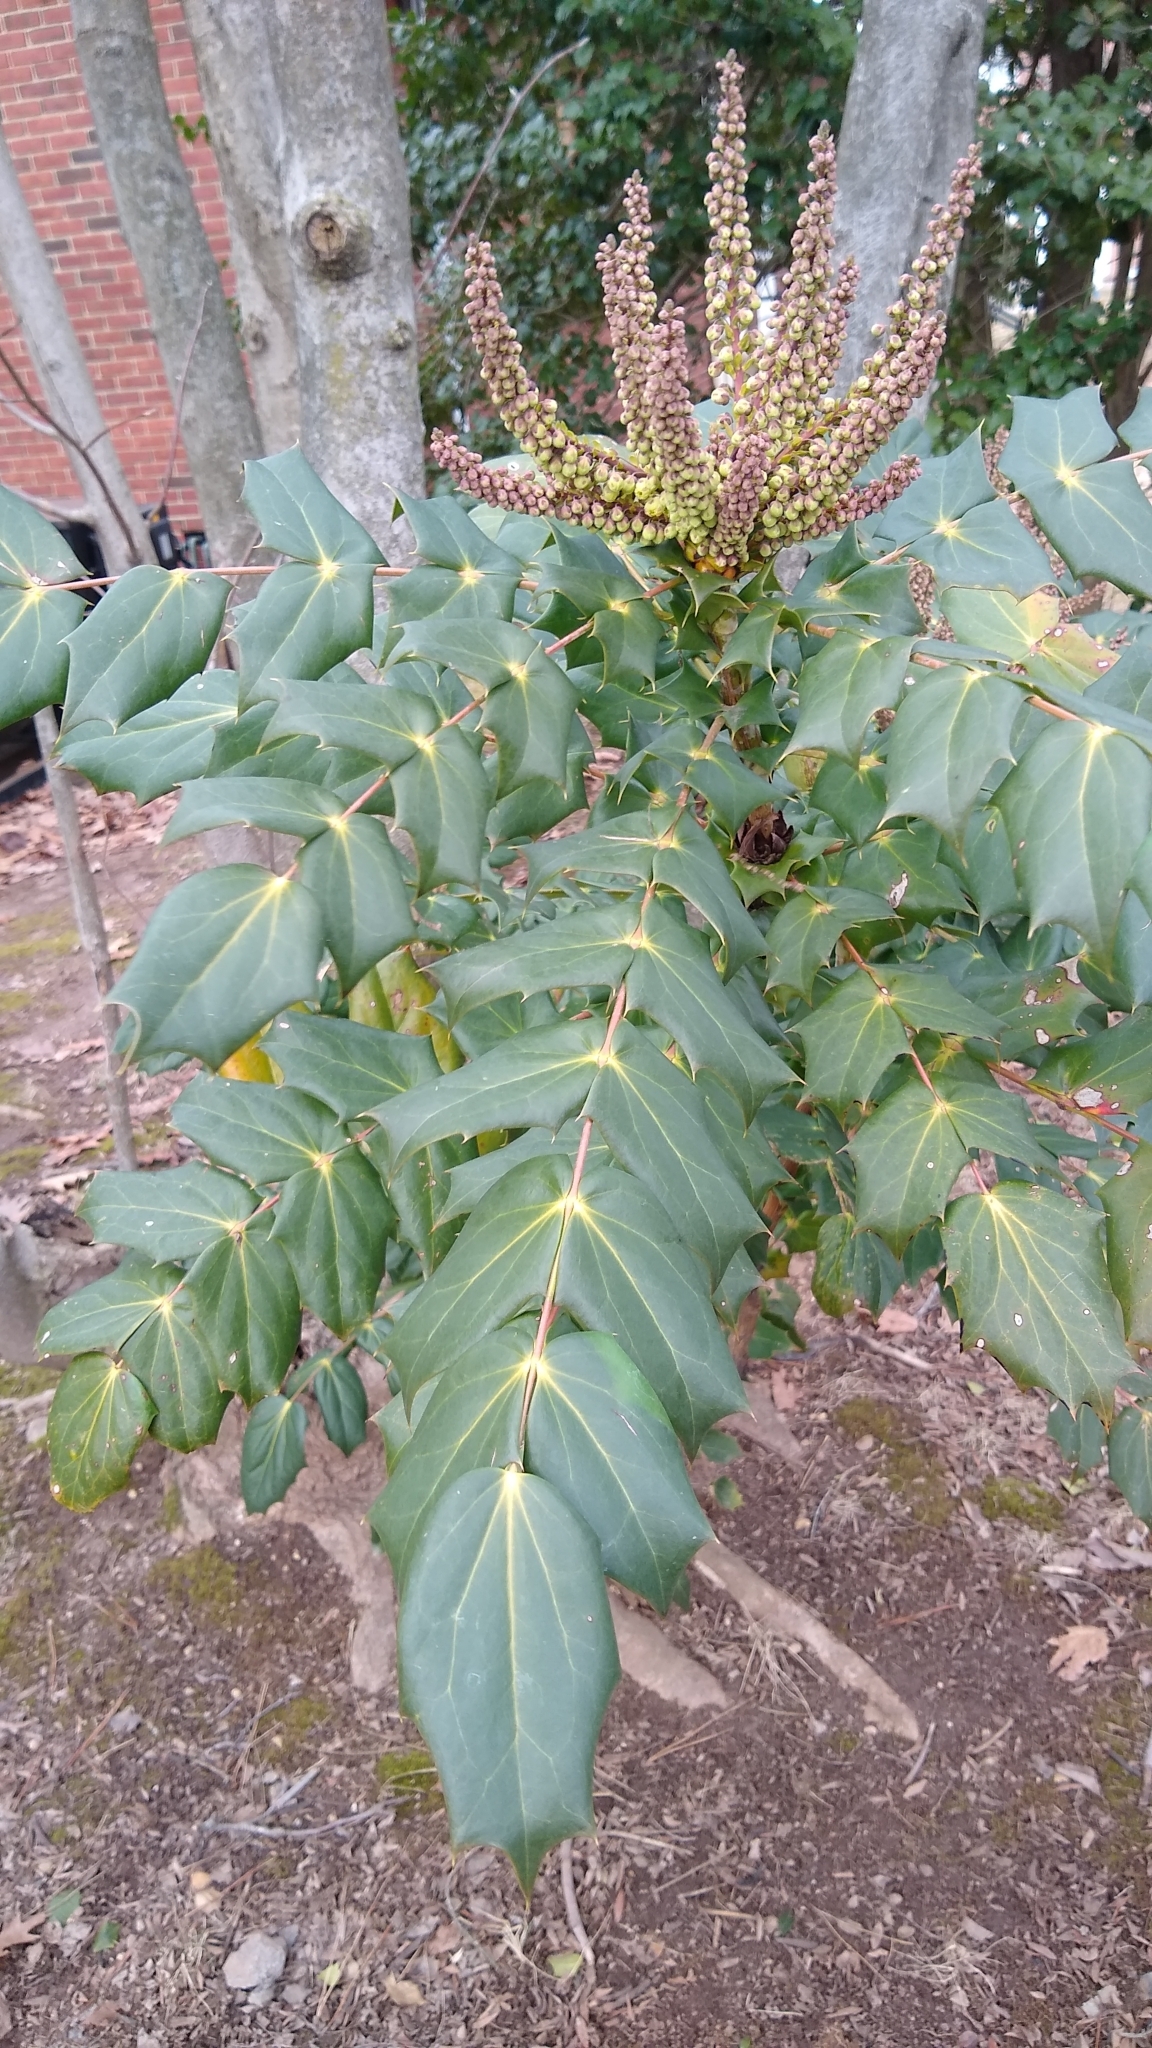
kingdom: Plantae
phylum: Tracheophyta
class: Magnoliopsida
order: Ranunculales
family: Berberidaceae
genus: Mahonia
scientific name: Mahonia bealei
